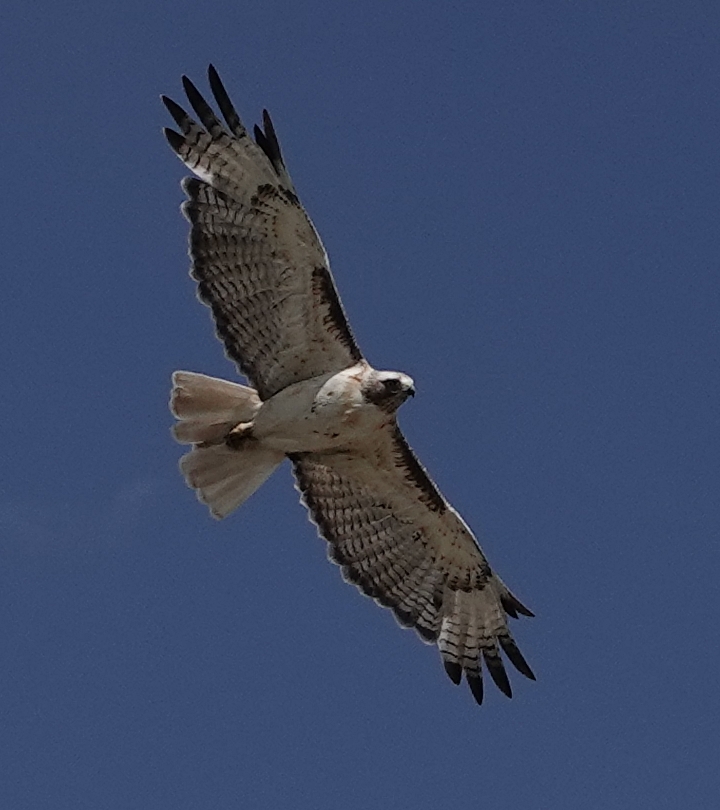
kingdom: Animalia
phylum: Chordata
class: Aves
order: Accipitriformes
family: Accipitridae
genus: Buteo
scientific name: Buteo jamaicensis
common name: Red-tailed hawk
